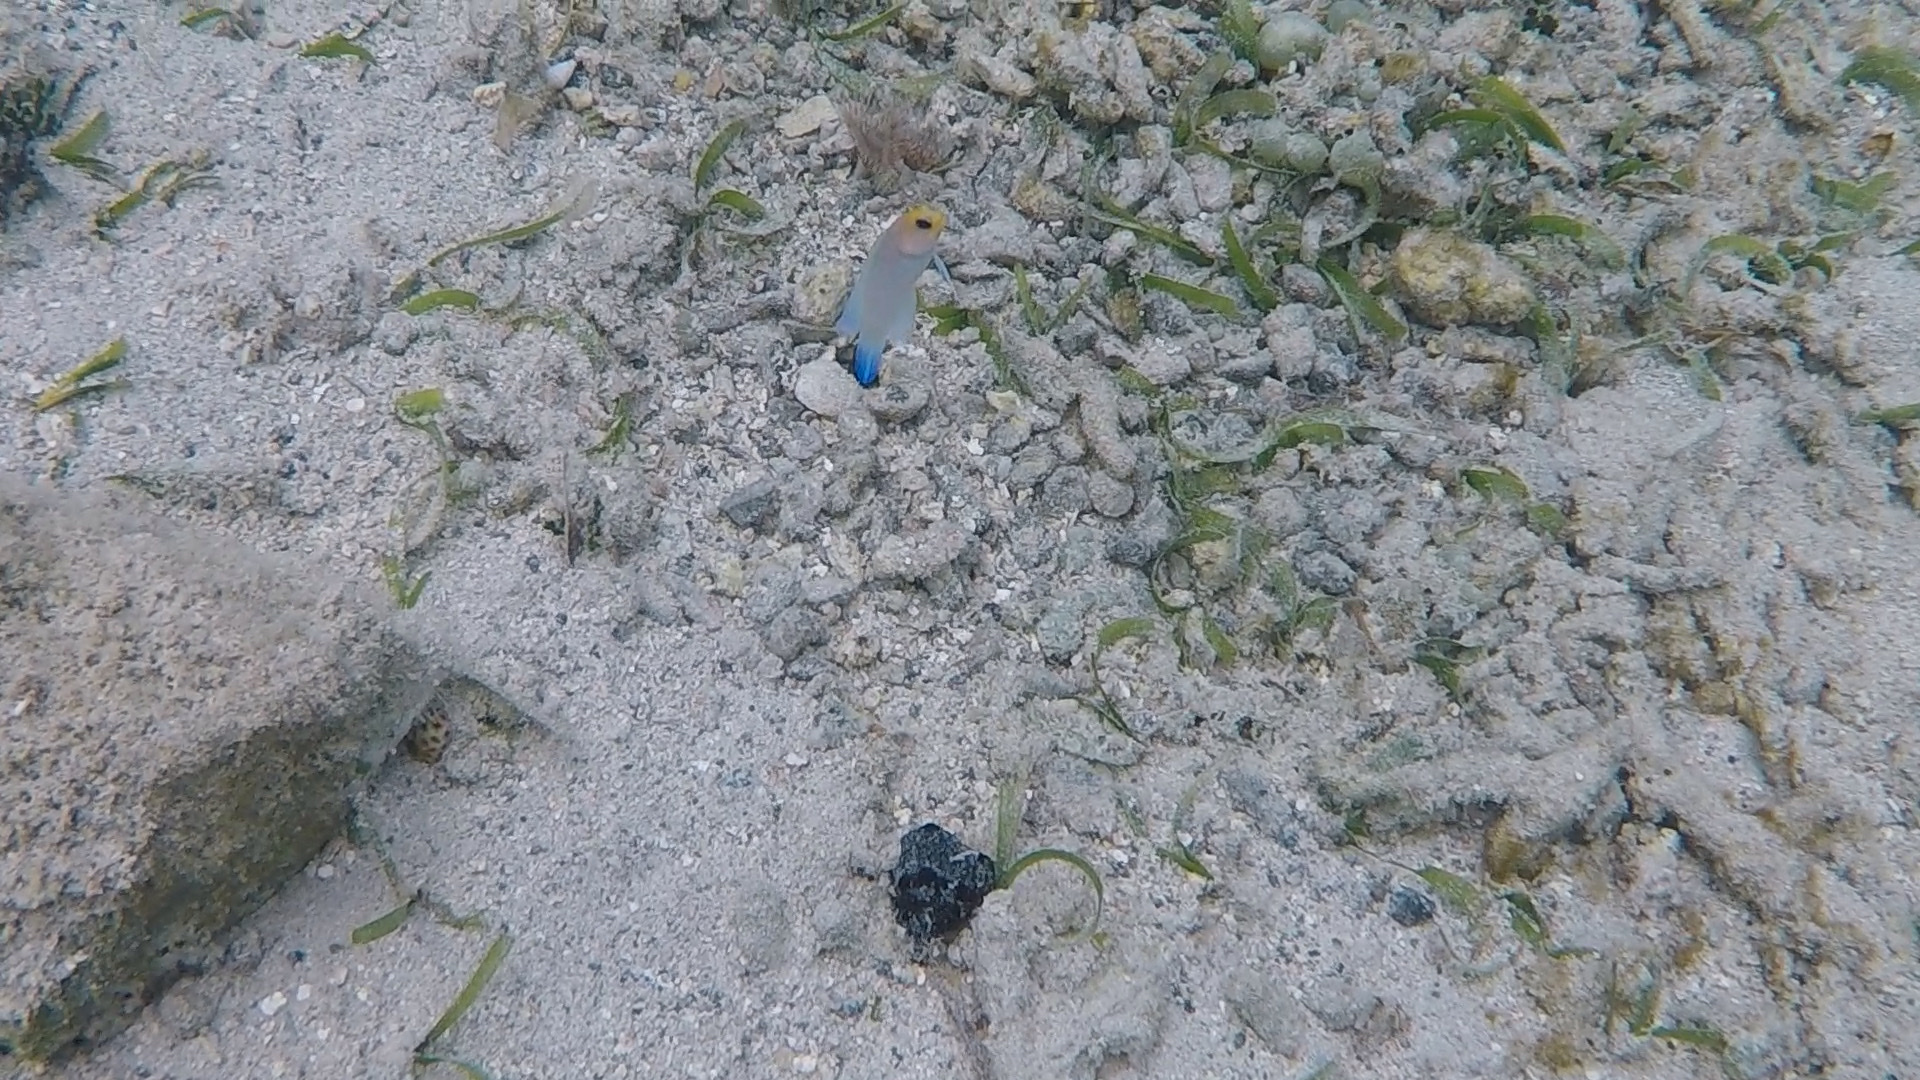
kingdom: Animalia
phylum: Chordata
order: Perciformes
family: Opistognathidae
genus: Opistognathus
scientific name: Opistognathus aurifrons
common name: Yellowhead jawfish
